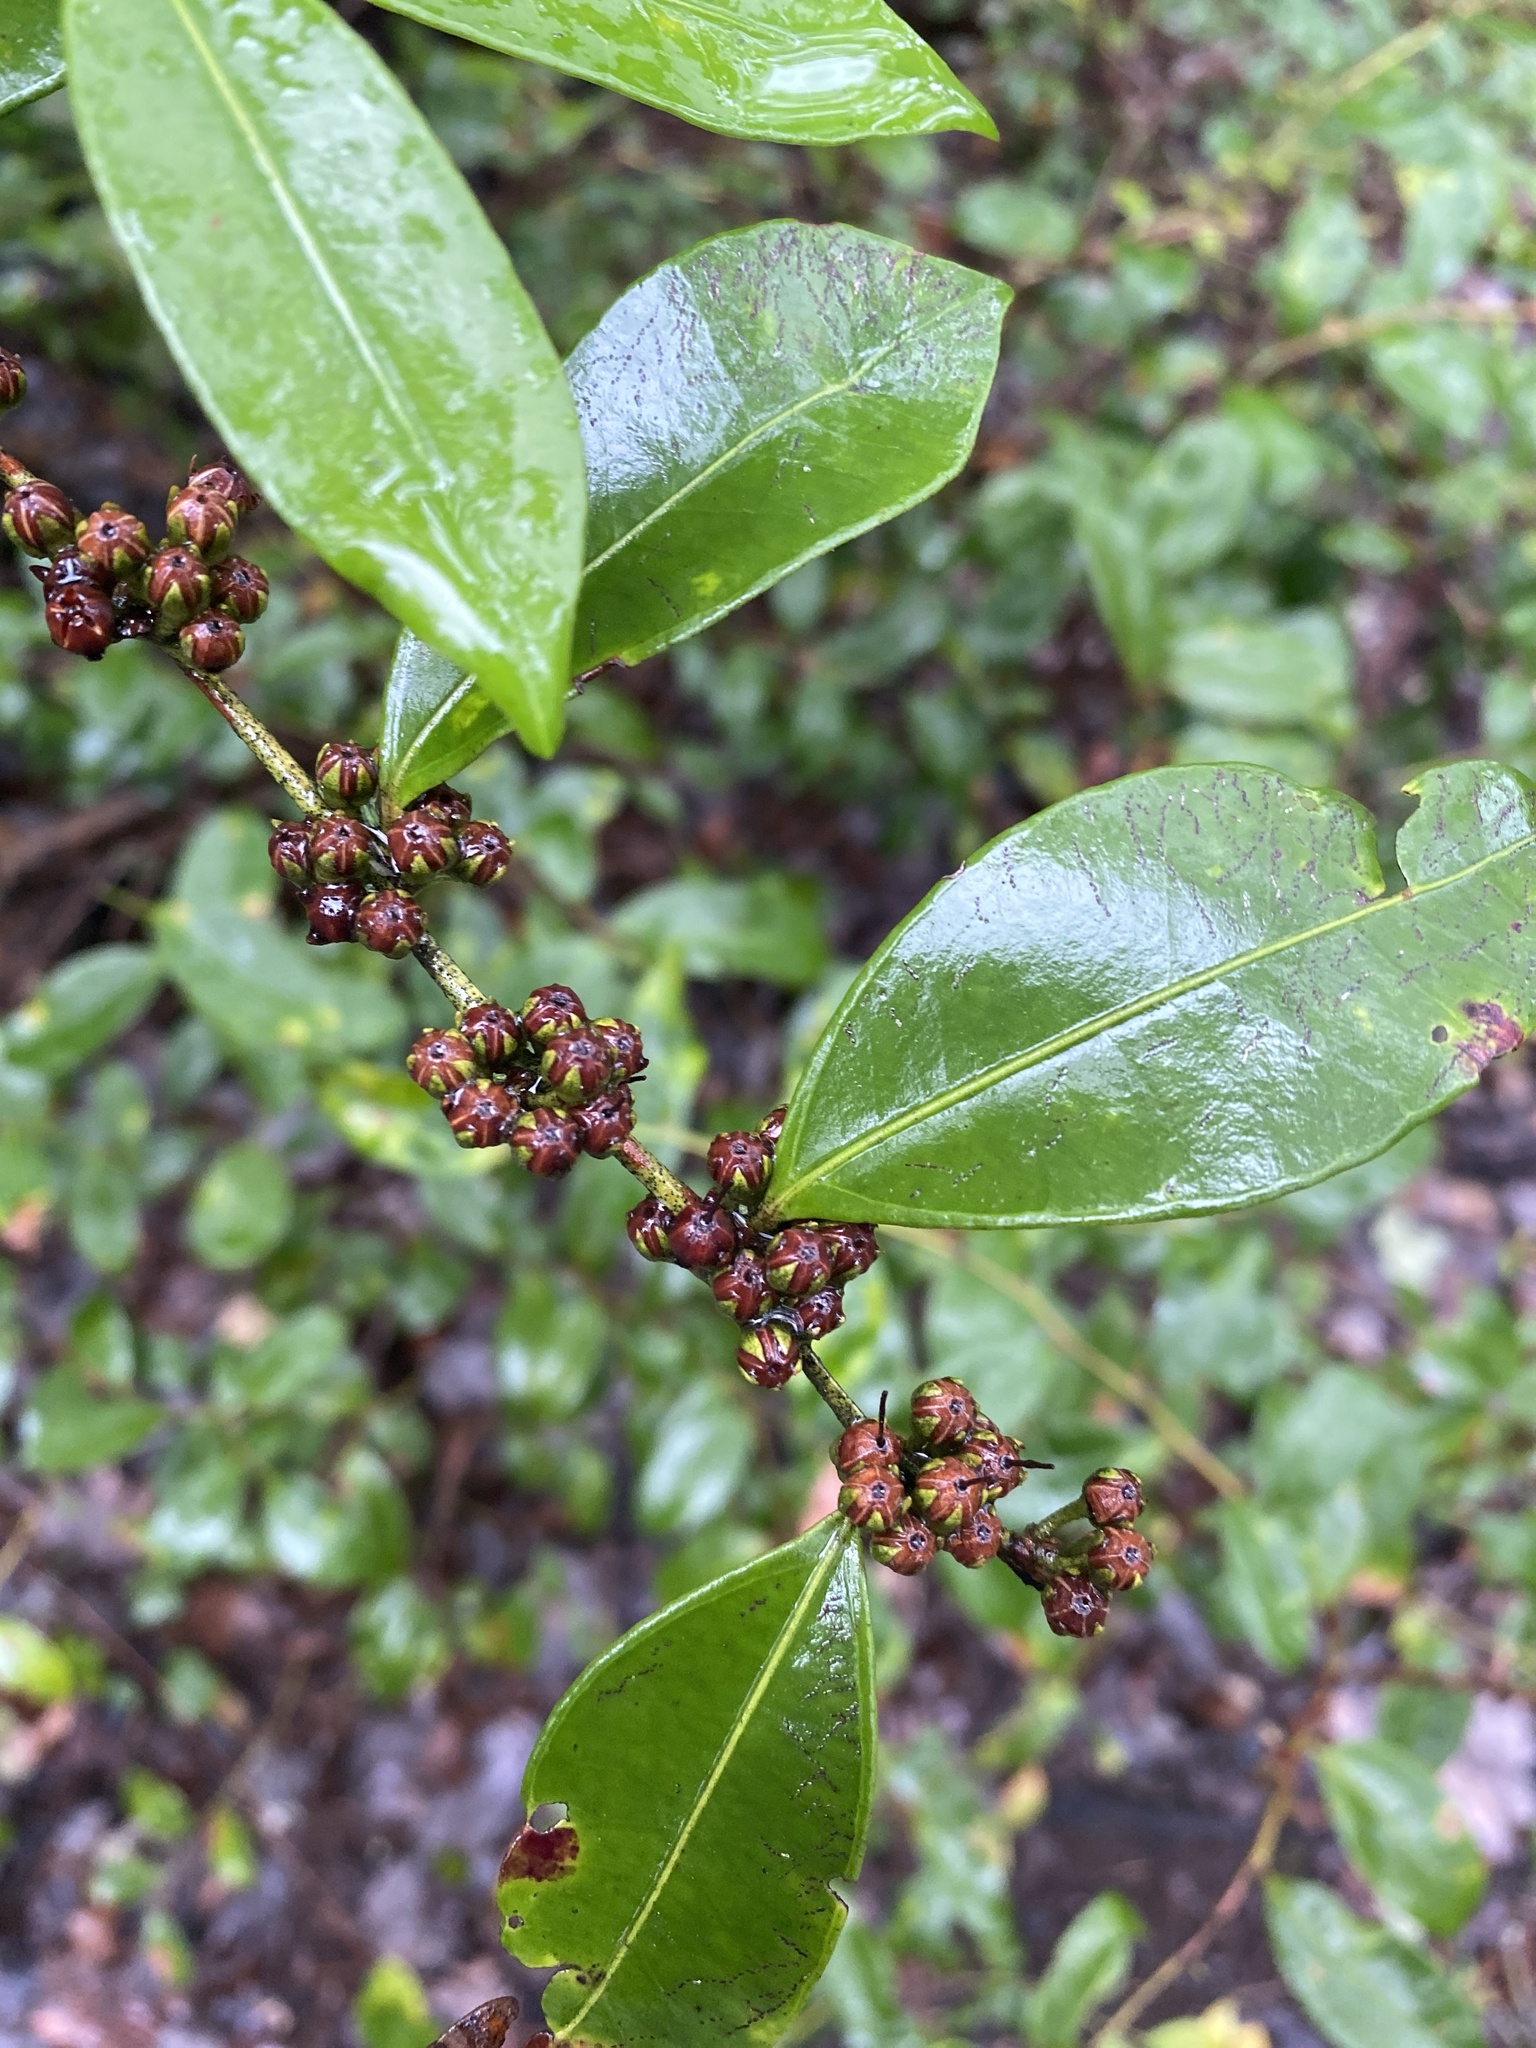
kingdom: Plantae
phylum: Tracheophyta
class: Magnoliopsida
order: Ericales
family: Ericaceae
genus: Lyonia
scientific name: Lyonia lucida
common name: Fetterbush
